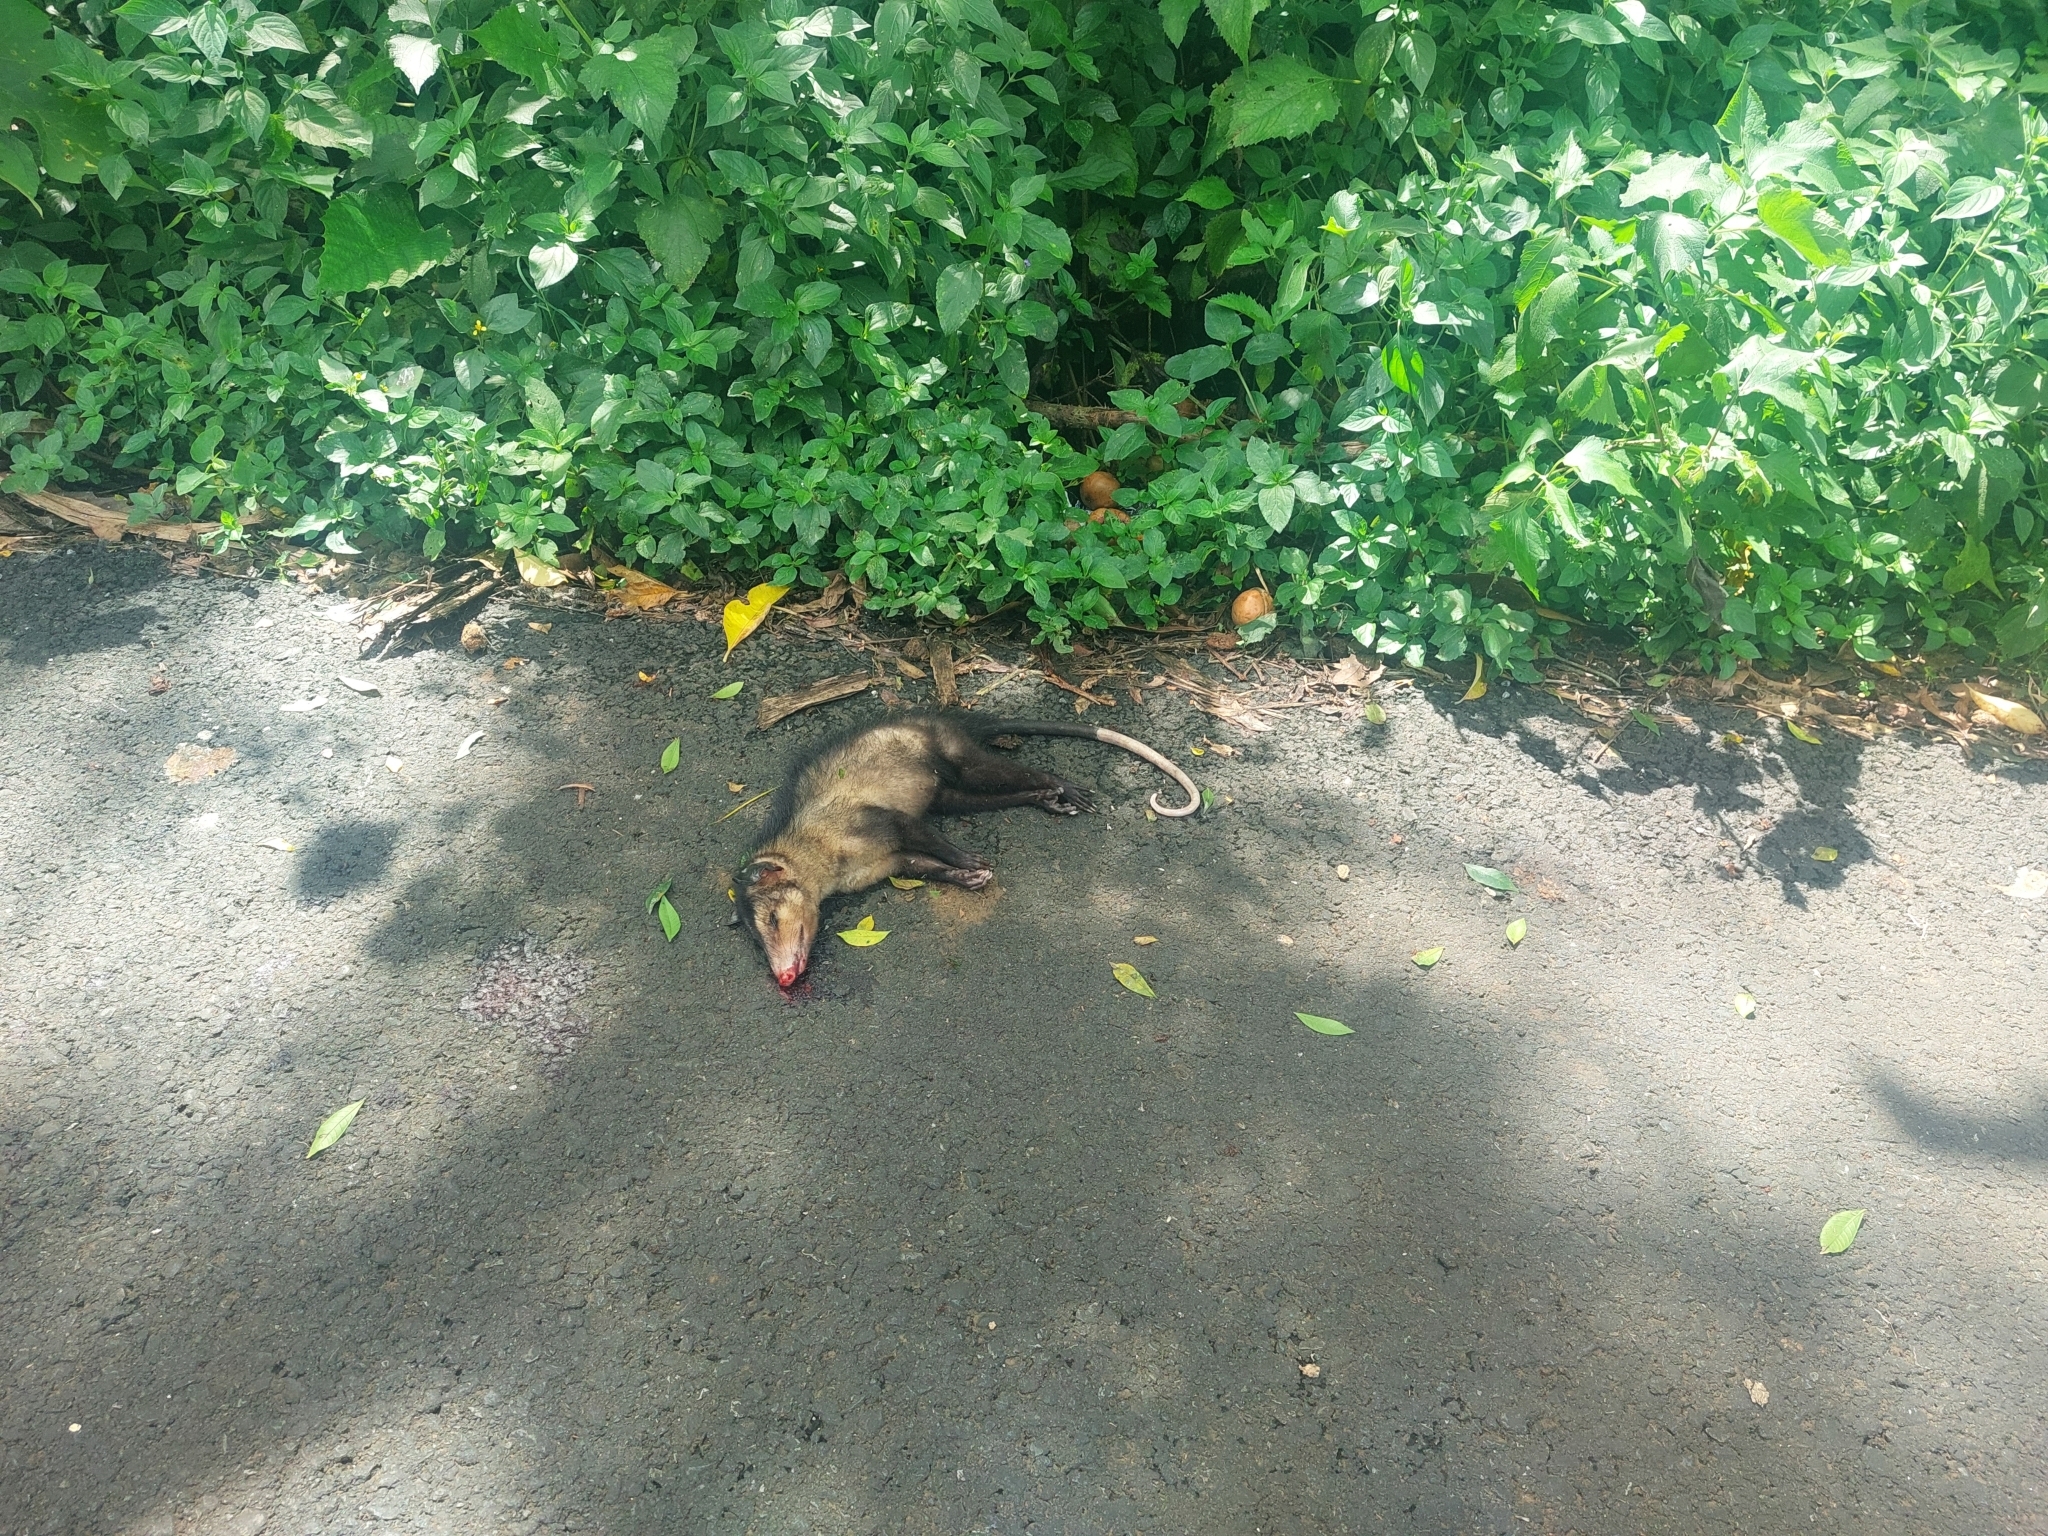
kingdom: Animalia
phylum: Chordata
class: Mammalia
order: Didelphimorphia
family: Didelphidae
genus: Didelphis
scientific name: Didelphis marsupialis
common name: Common opossum
